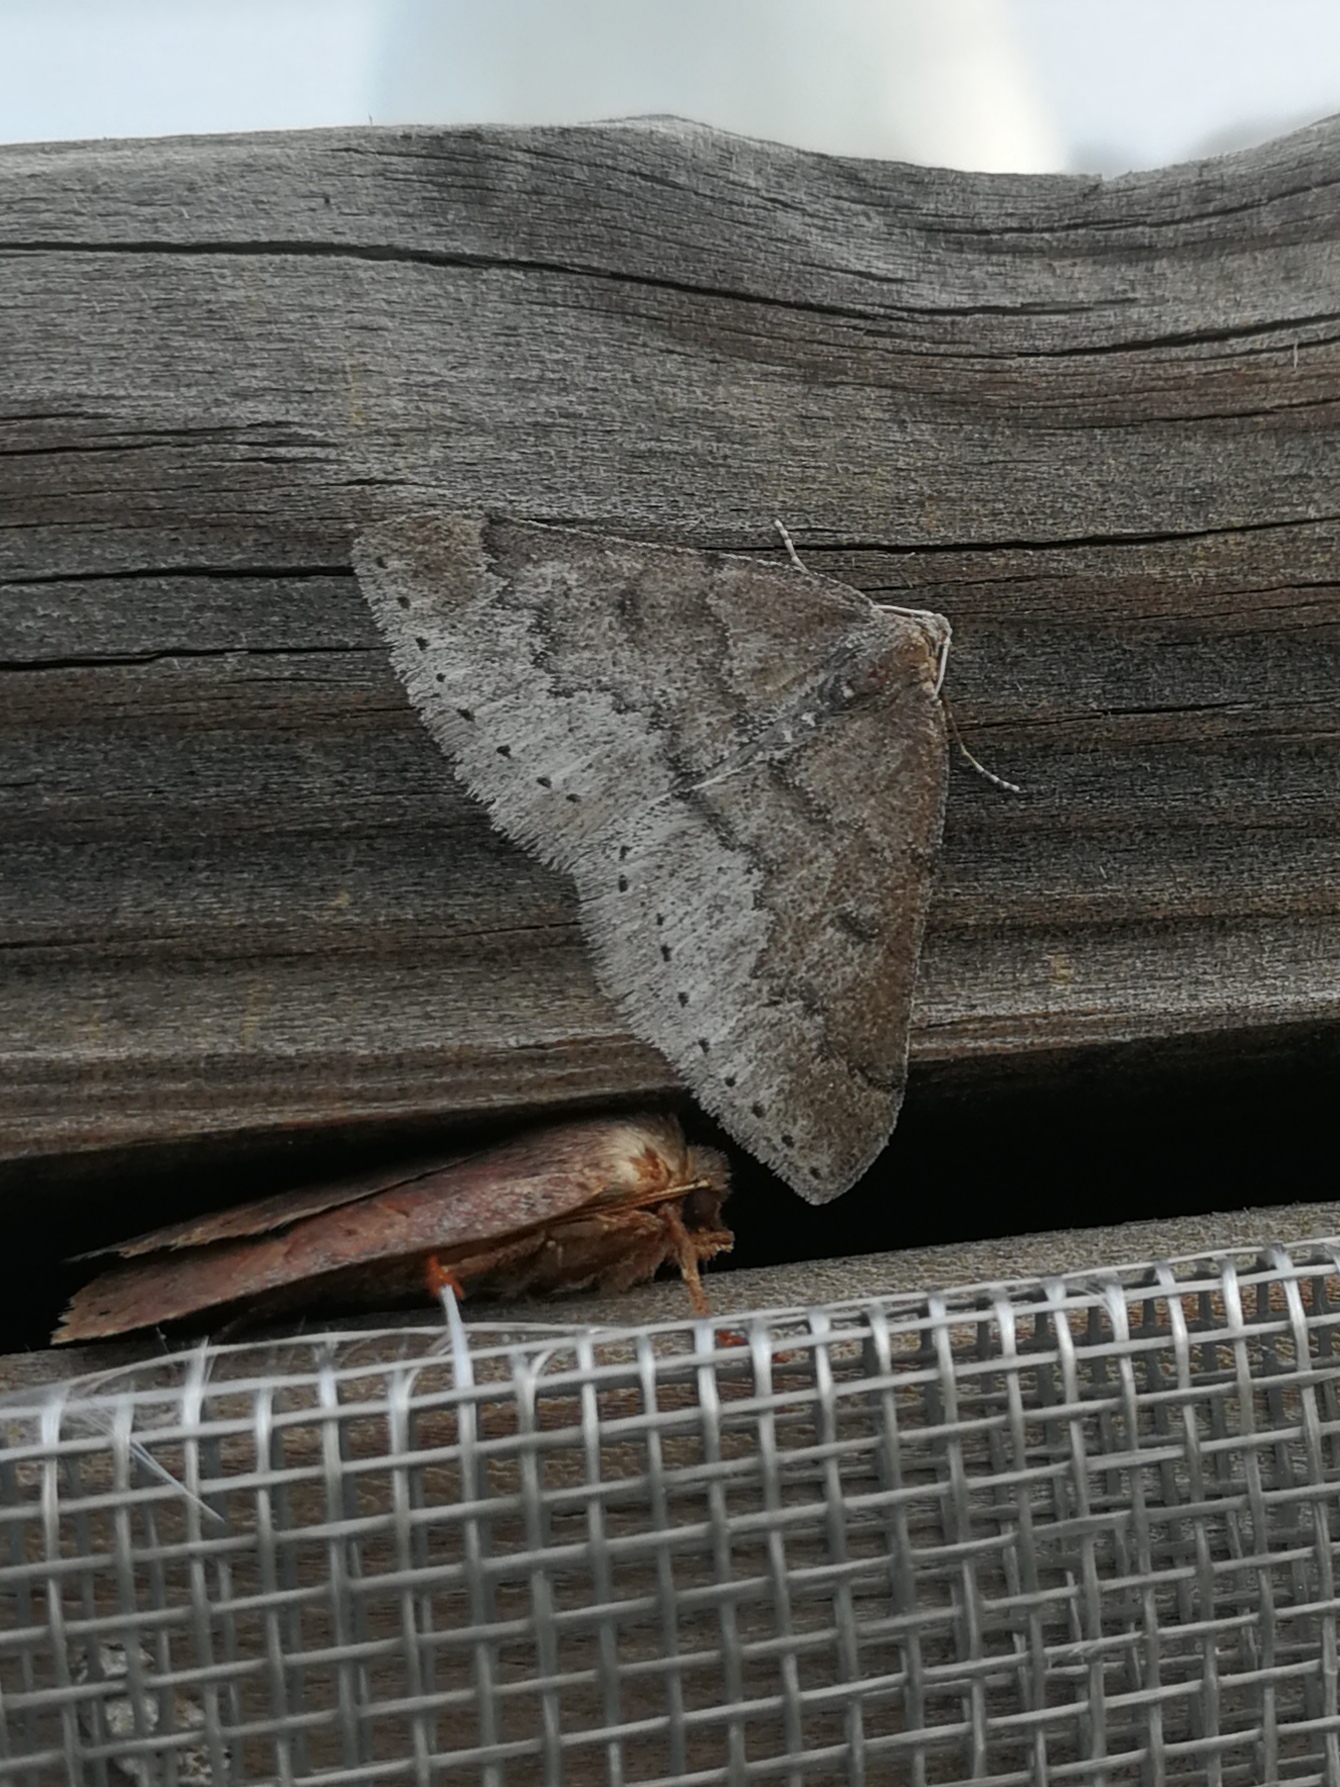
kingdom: Animalia
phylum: Arthropoda
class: Insecta
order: Lepidoptera
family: Geometridae
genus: Aleucis
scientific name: Aleucis distinctata
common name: Sloe carpet
